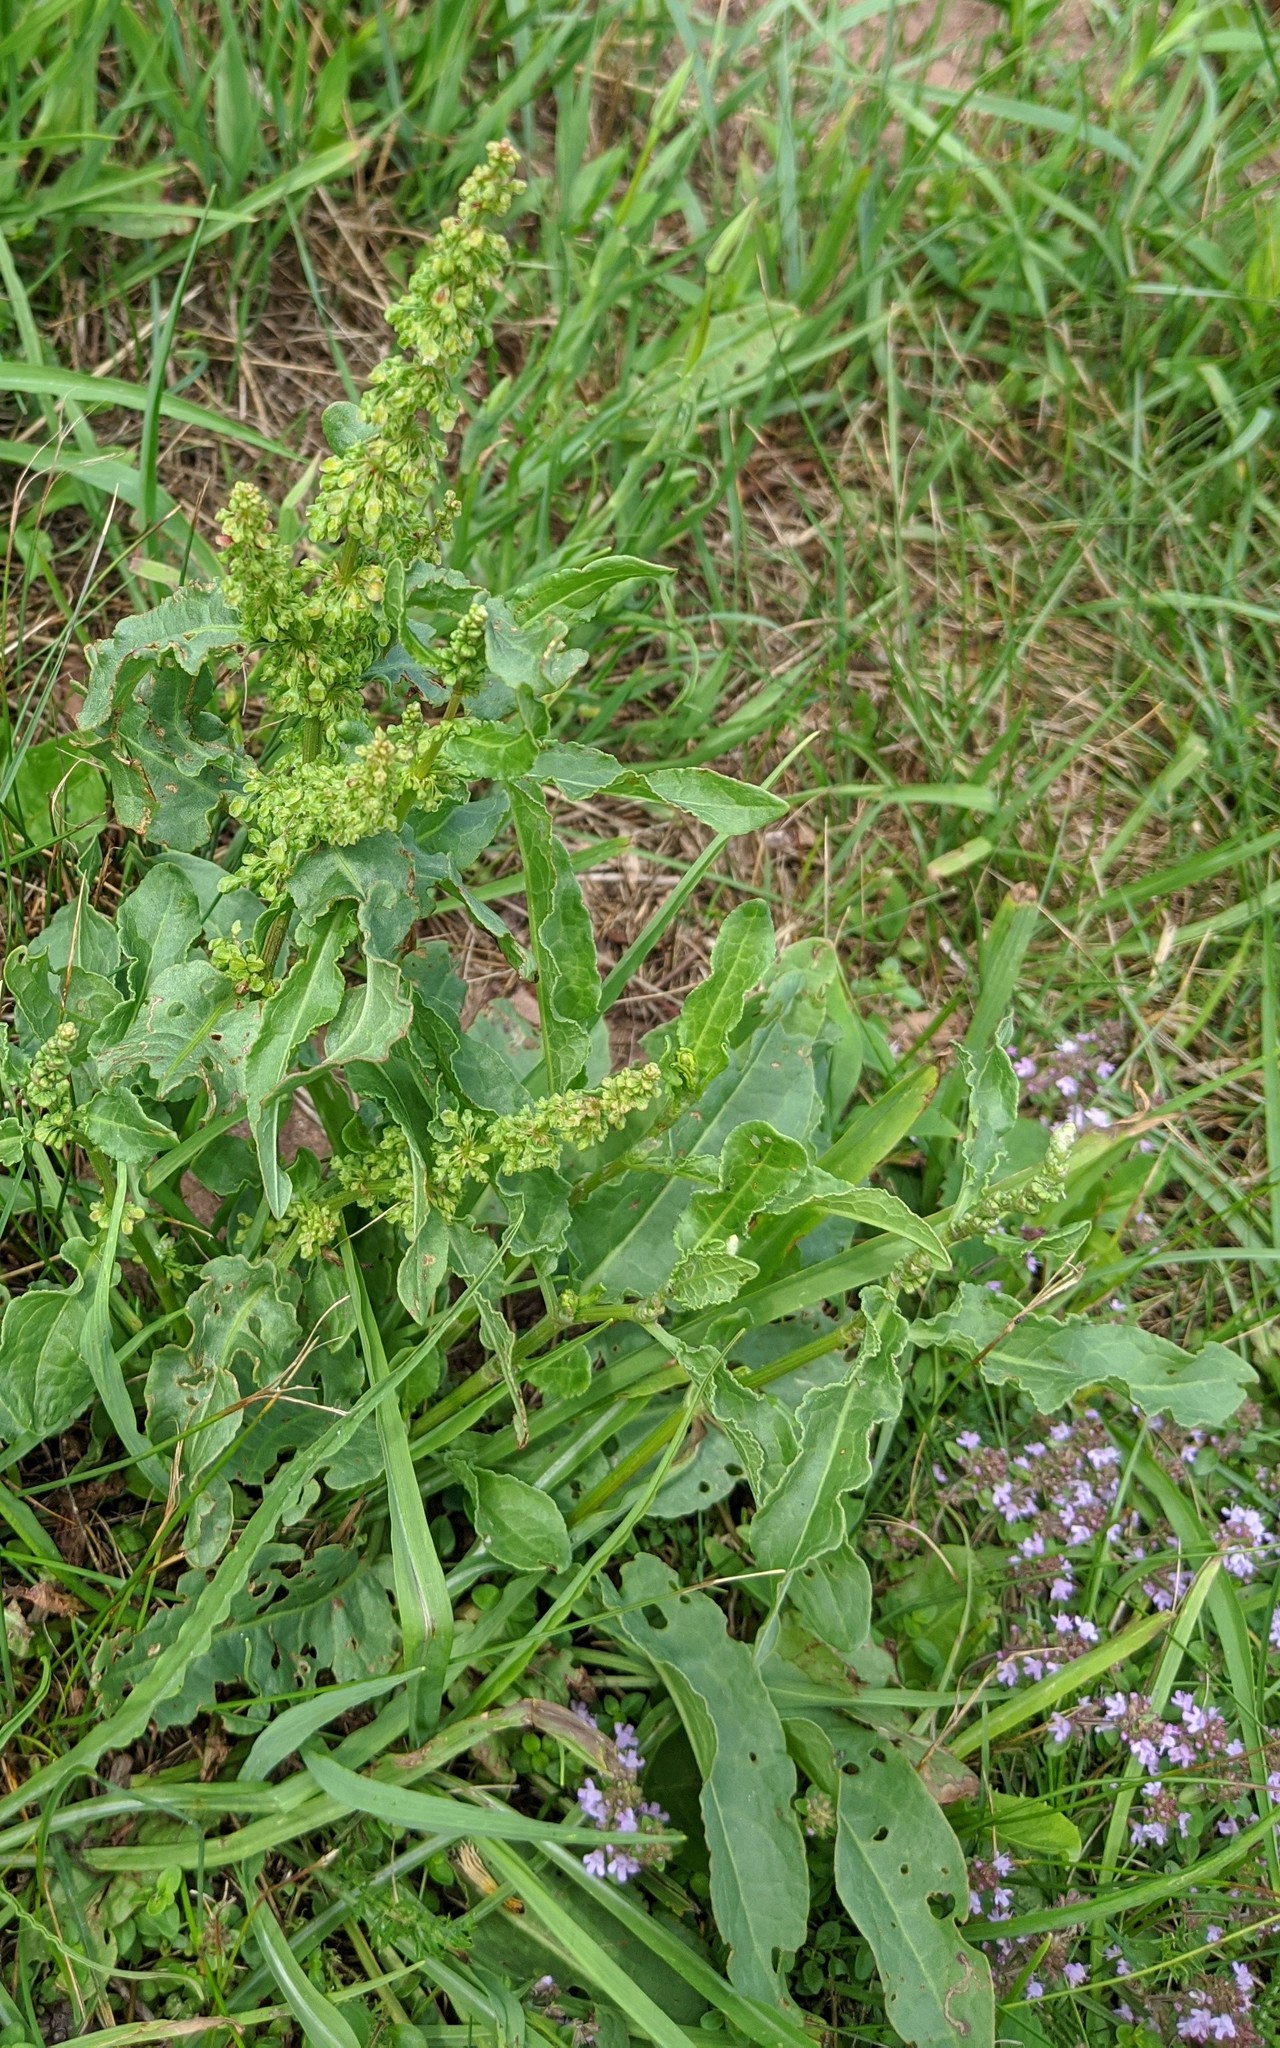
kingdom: Plantae
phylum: Tracheophyta
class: Magnoliopsida
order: Caryophyllales
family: Polygonaceae
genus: Rumex
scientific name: Rumex crispus
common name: Curled dock
